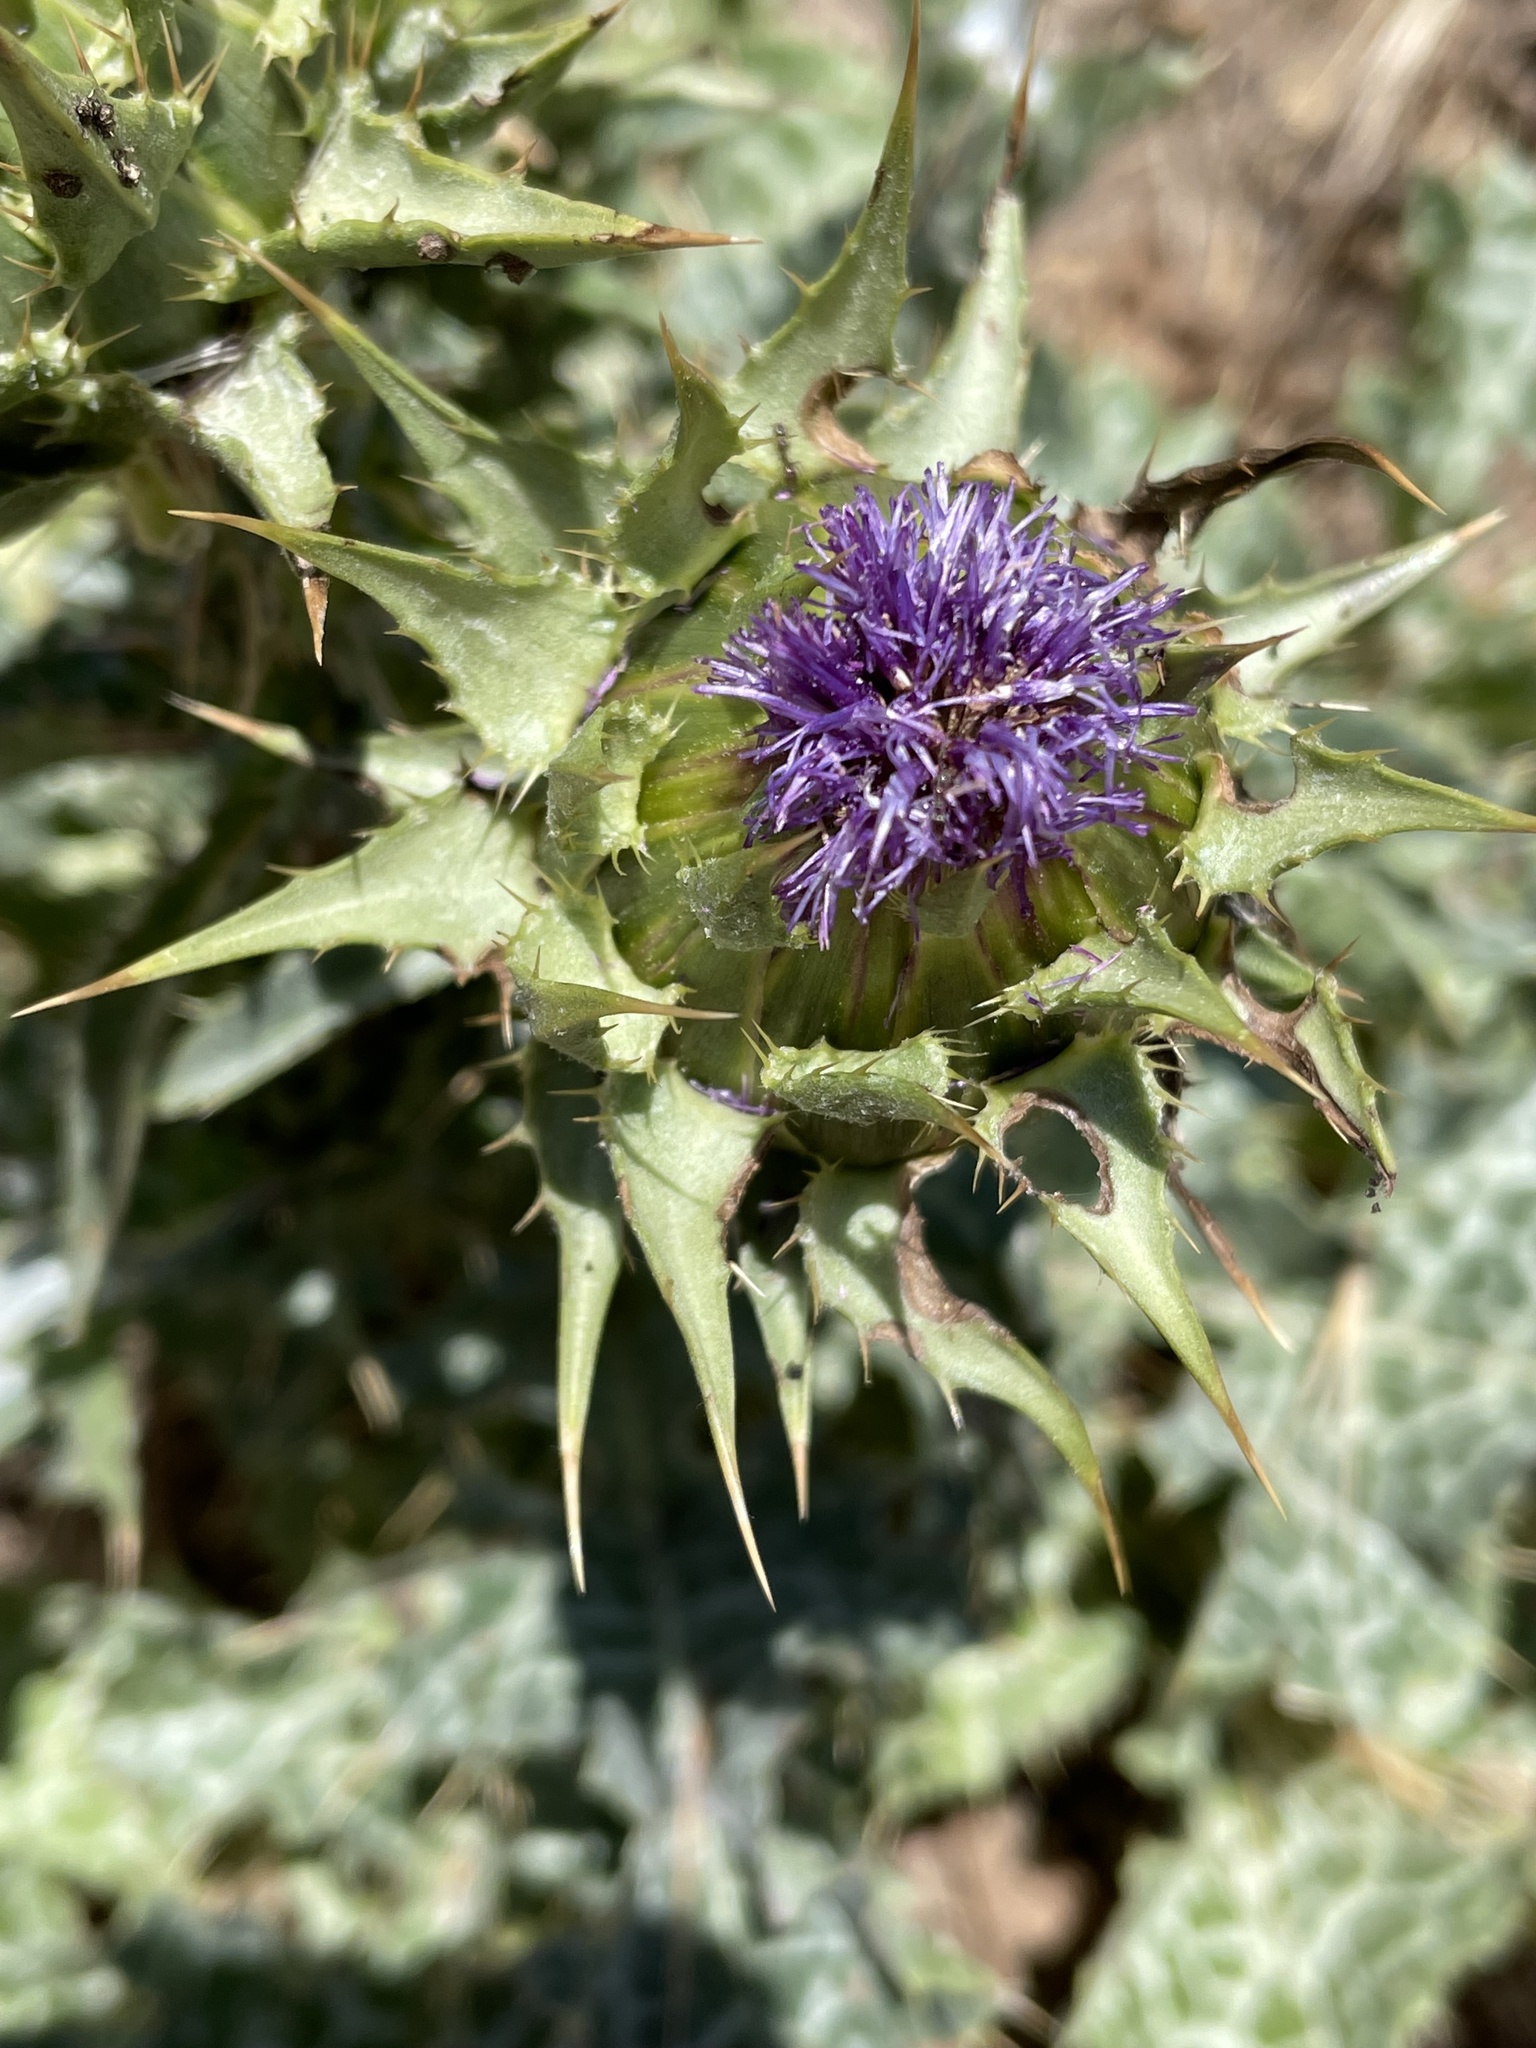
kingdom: Plantae
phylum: Tracheophyta
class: Magnoliopsida
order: Asterales
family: Asteraceae
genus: Silybum
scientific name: Silybum marianum
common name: Milk thistle
